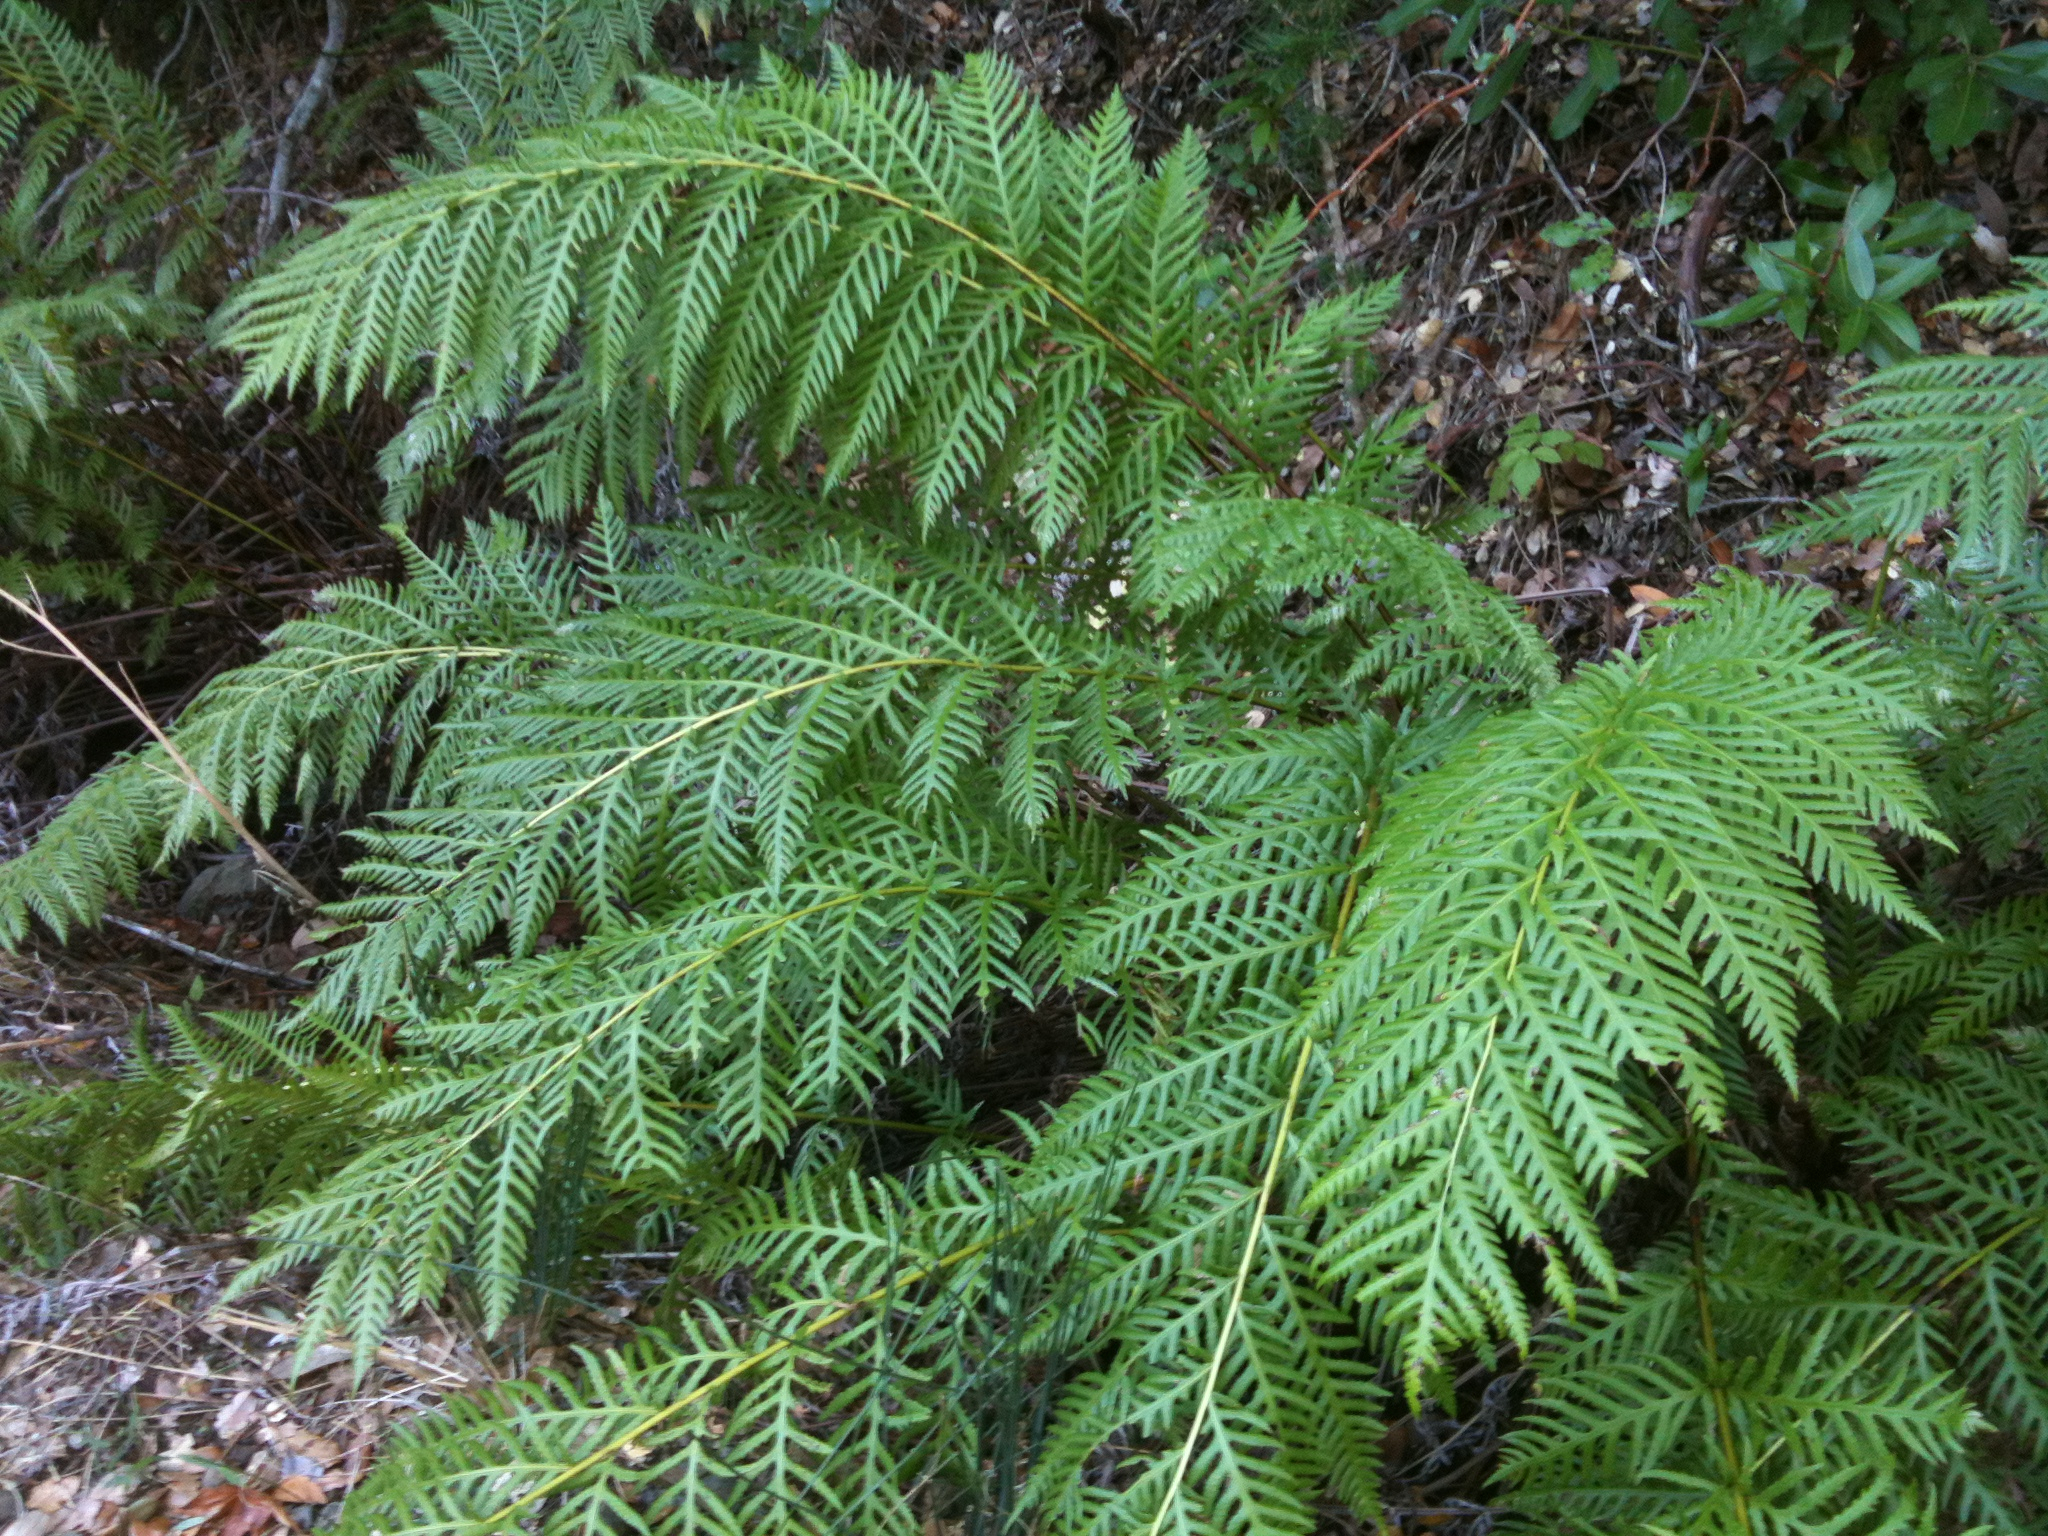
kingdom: Plantae
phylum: Tracheophyta
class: Polypodiopsida
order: Polypodiales
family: Blechnaceae
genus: Woodwardia
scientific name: Woodwardia fimbriata
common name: Giant chain fern
